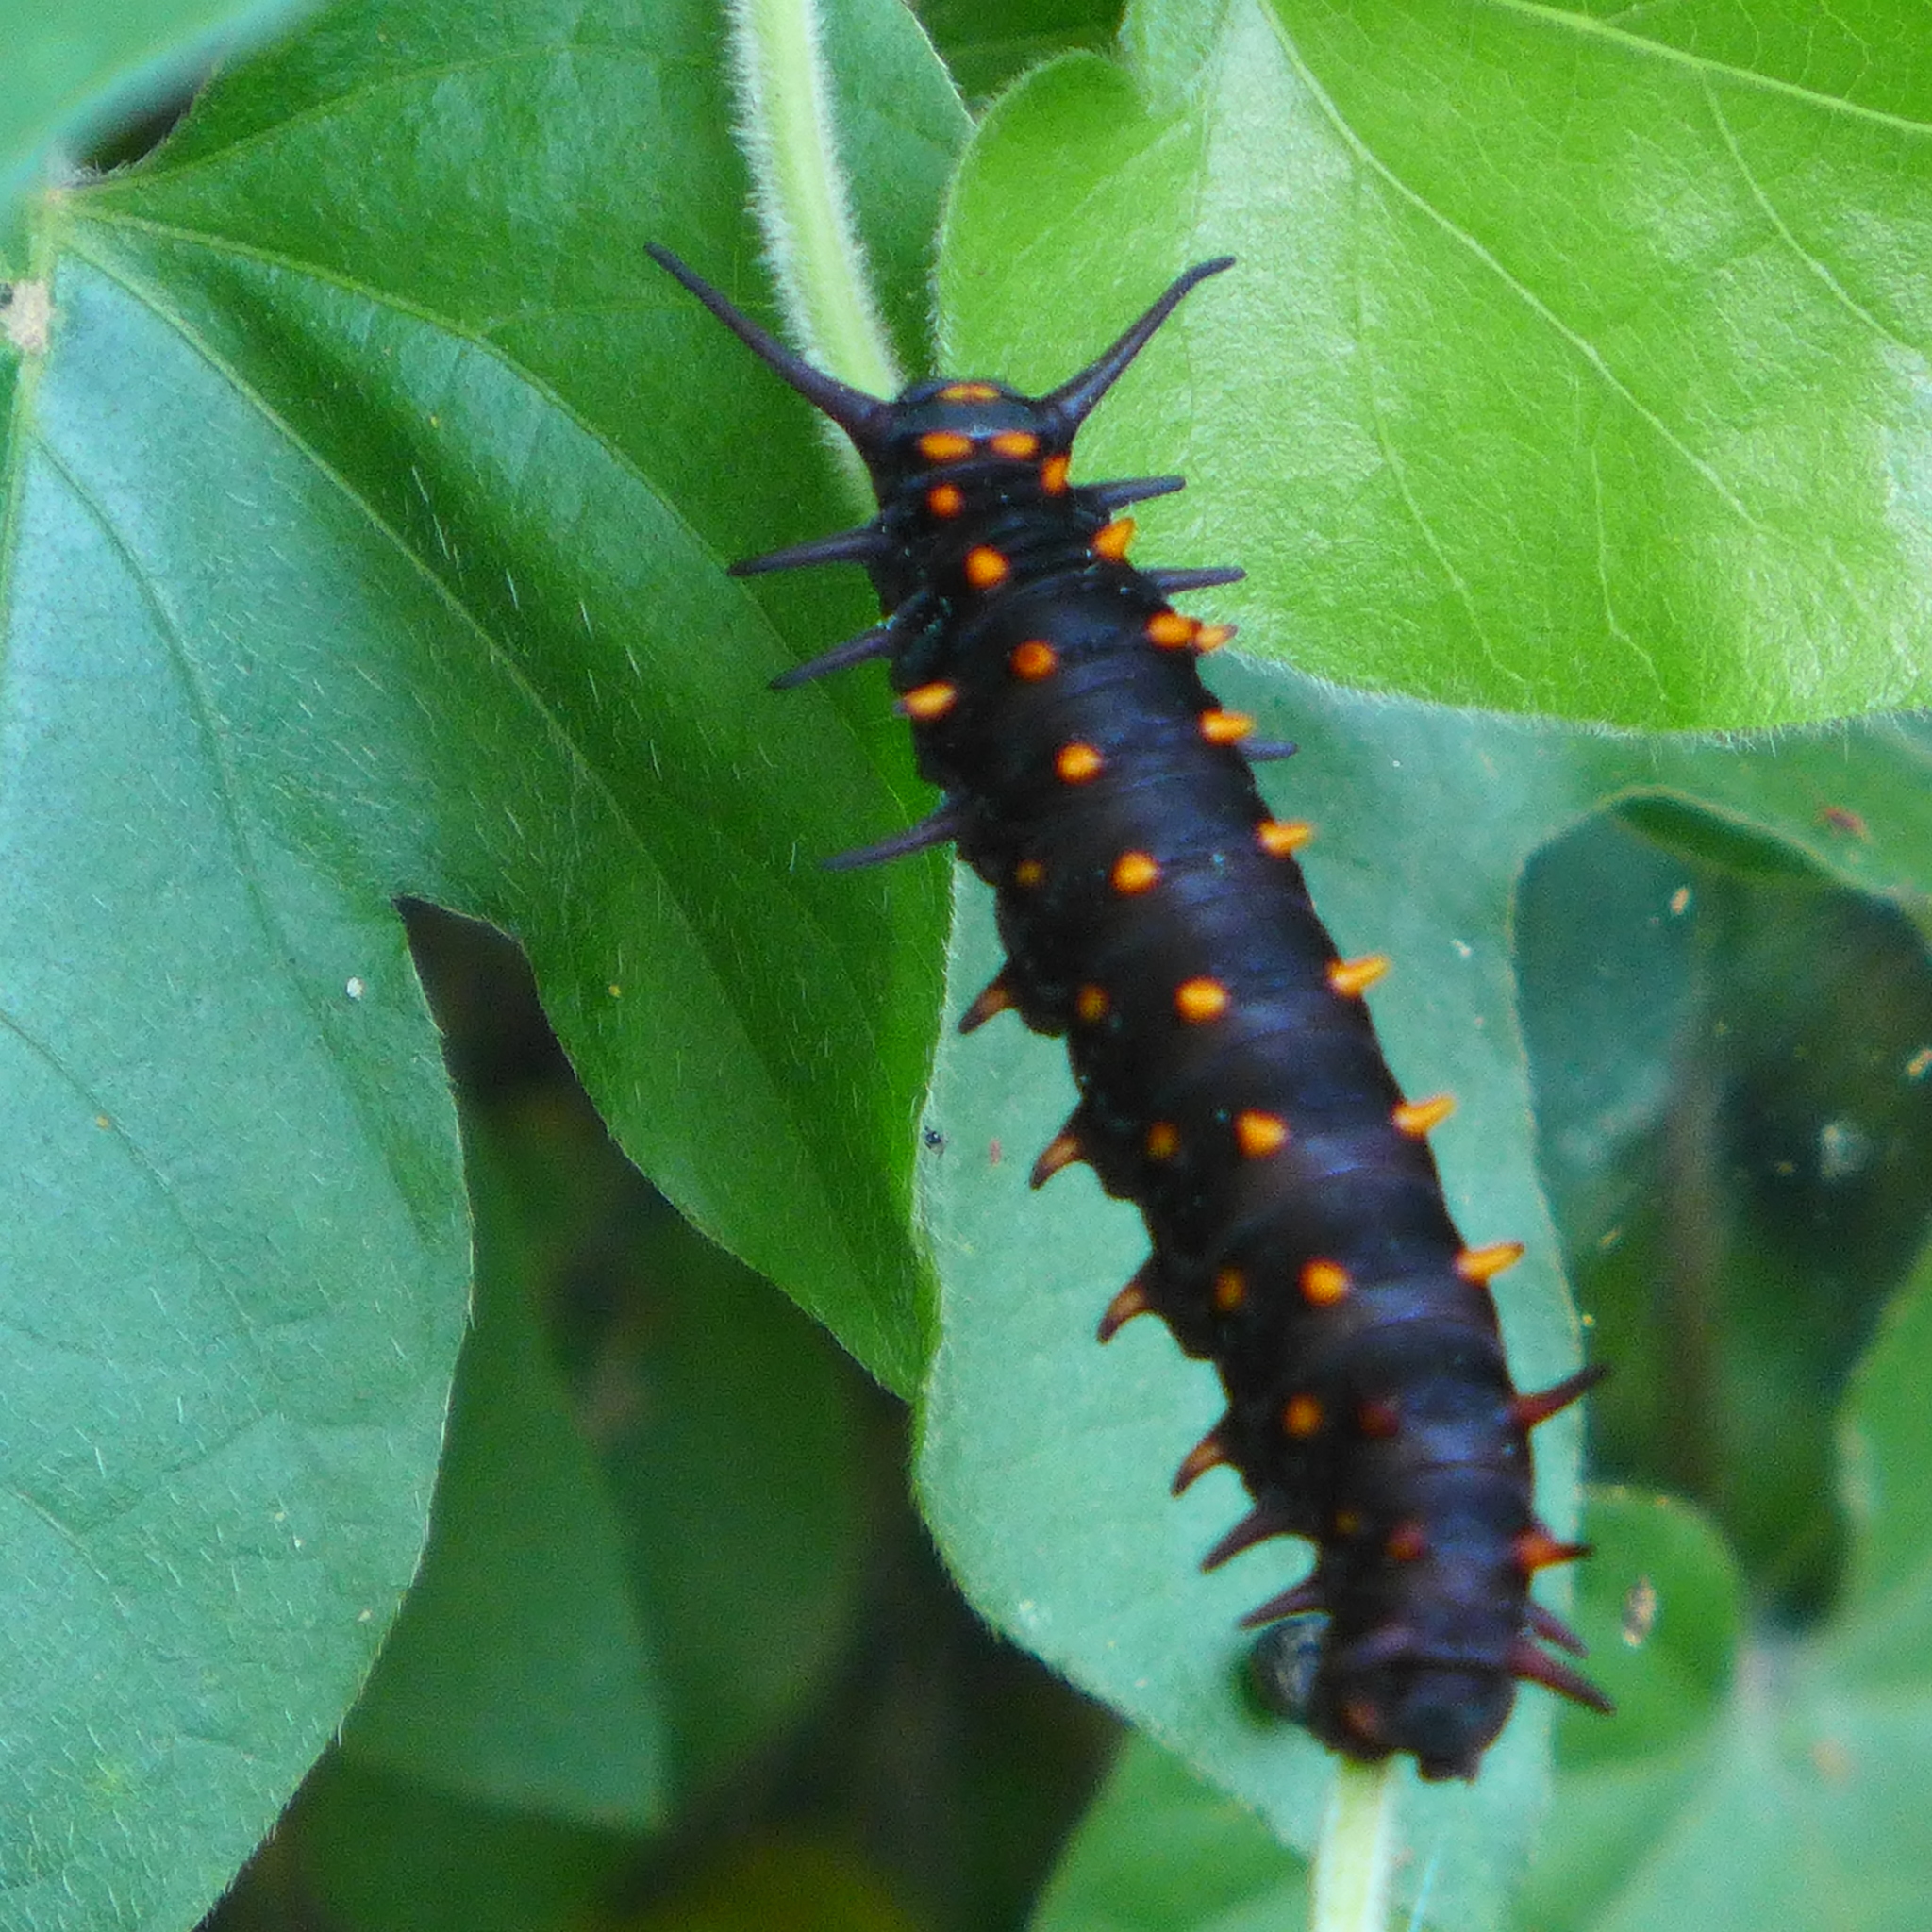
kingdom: Animalia
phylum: Arthropoda
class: Insecta
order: Lepidoptera
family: Papilionidae
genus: Battus
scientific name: Battus philenor
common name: Pipevine swallowtail
